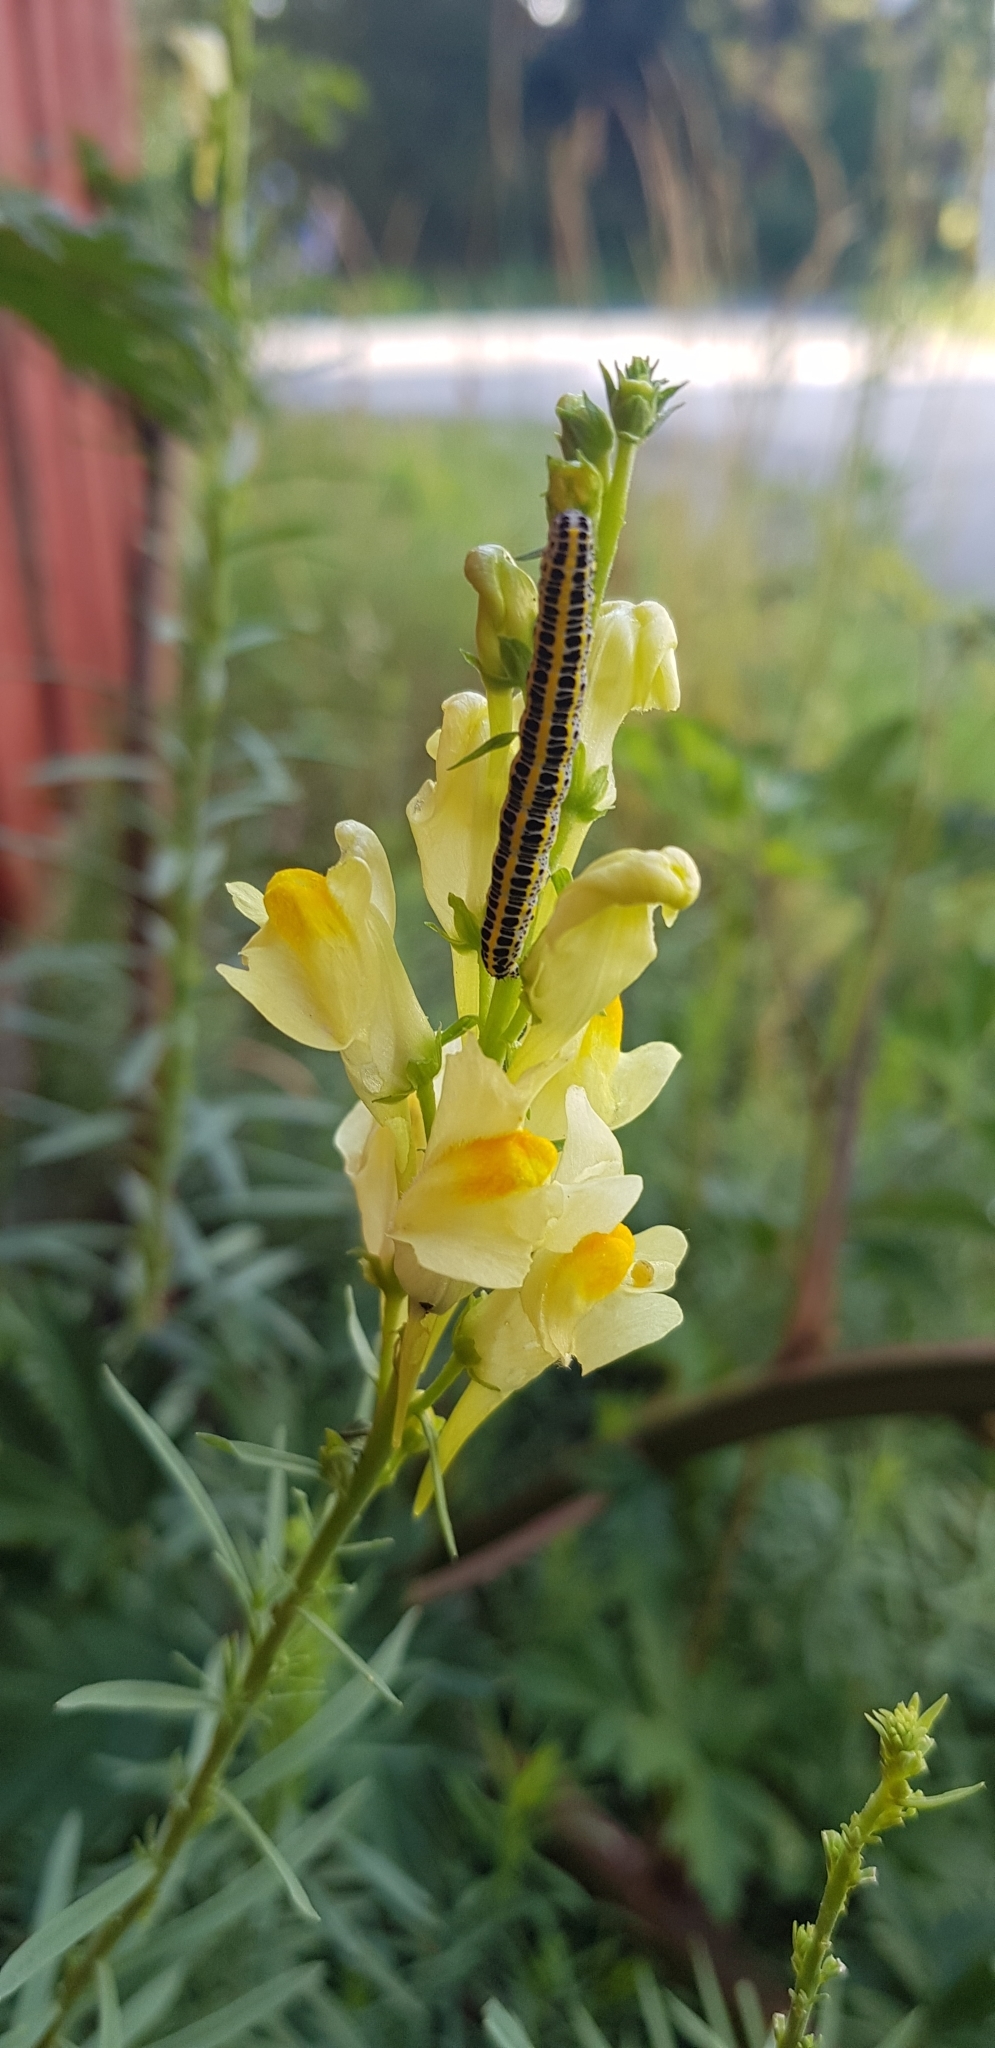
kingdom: Animalia
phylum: Arthropoda
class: Insecta
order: Lepidoptera
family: Noctuidae
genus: Calophasia
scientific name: Calophasia lunula
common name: Toadflax brocade
